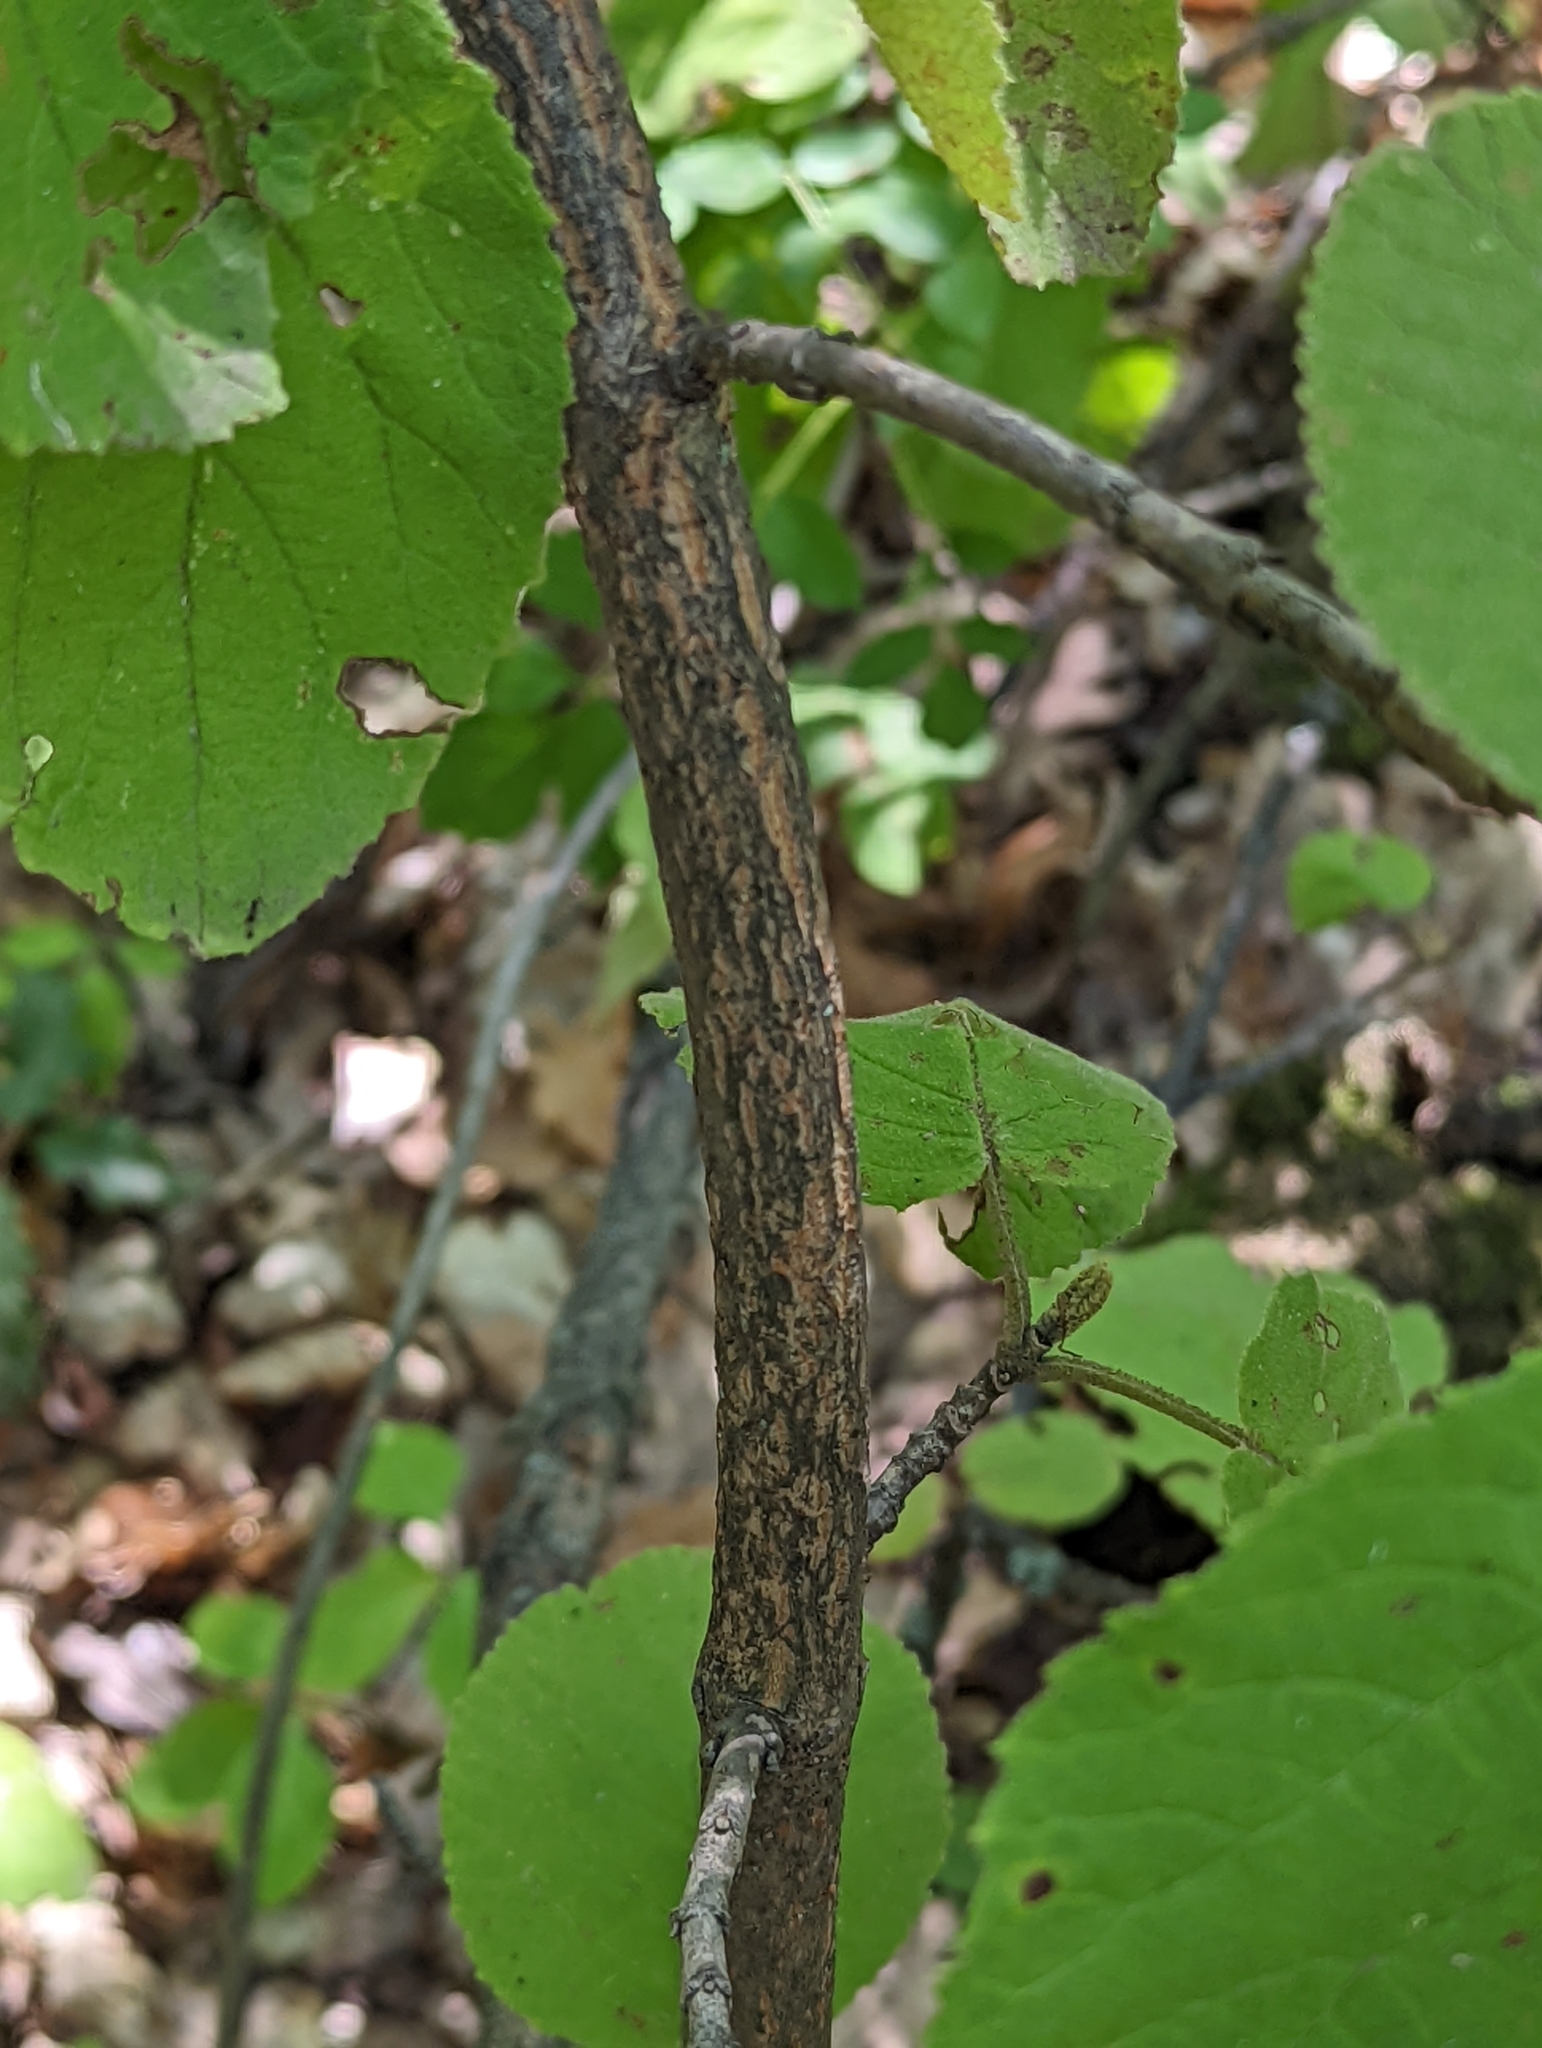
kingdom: Plantae
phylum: Tracheophyta
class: Magnoliopsida
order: Dipsacales
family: Viburnaceae
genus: Viburnum
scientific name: Viburnum lantana
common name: Wayfaring tree
